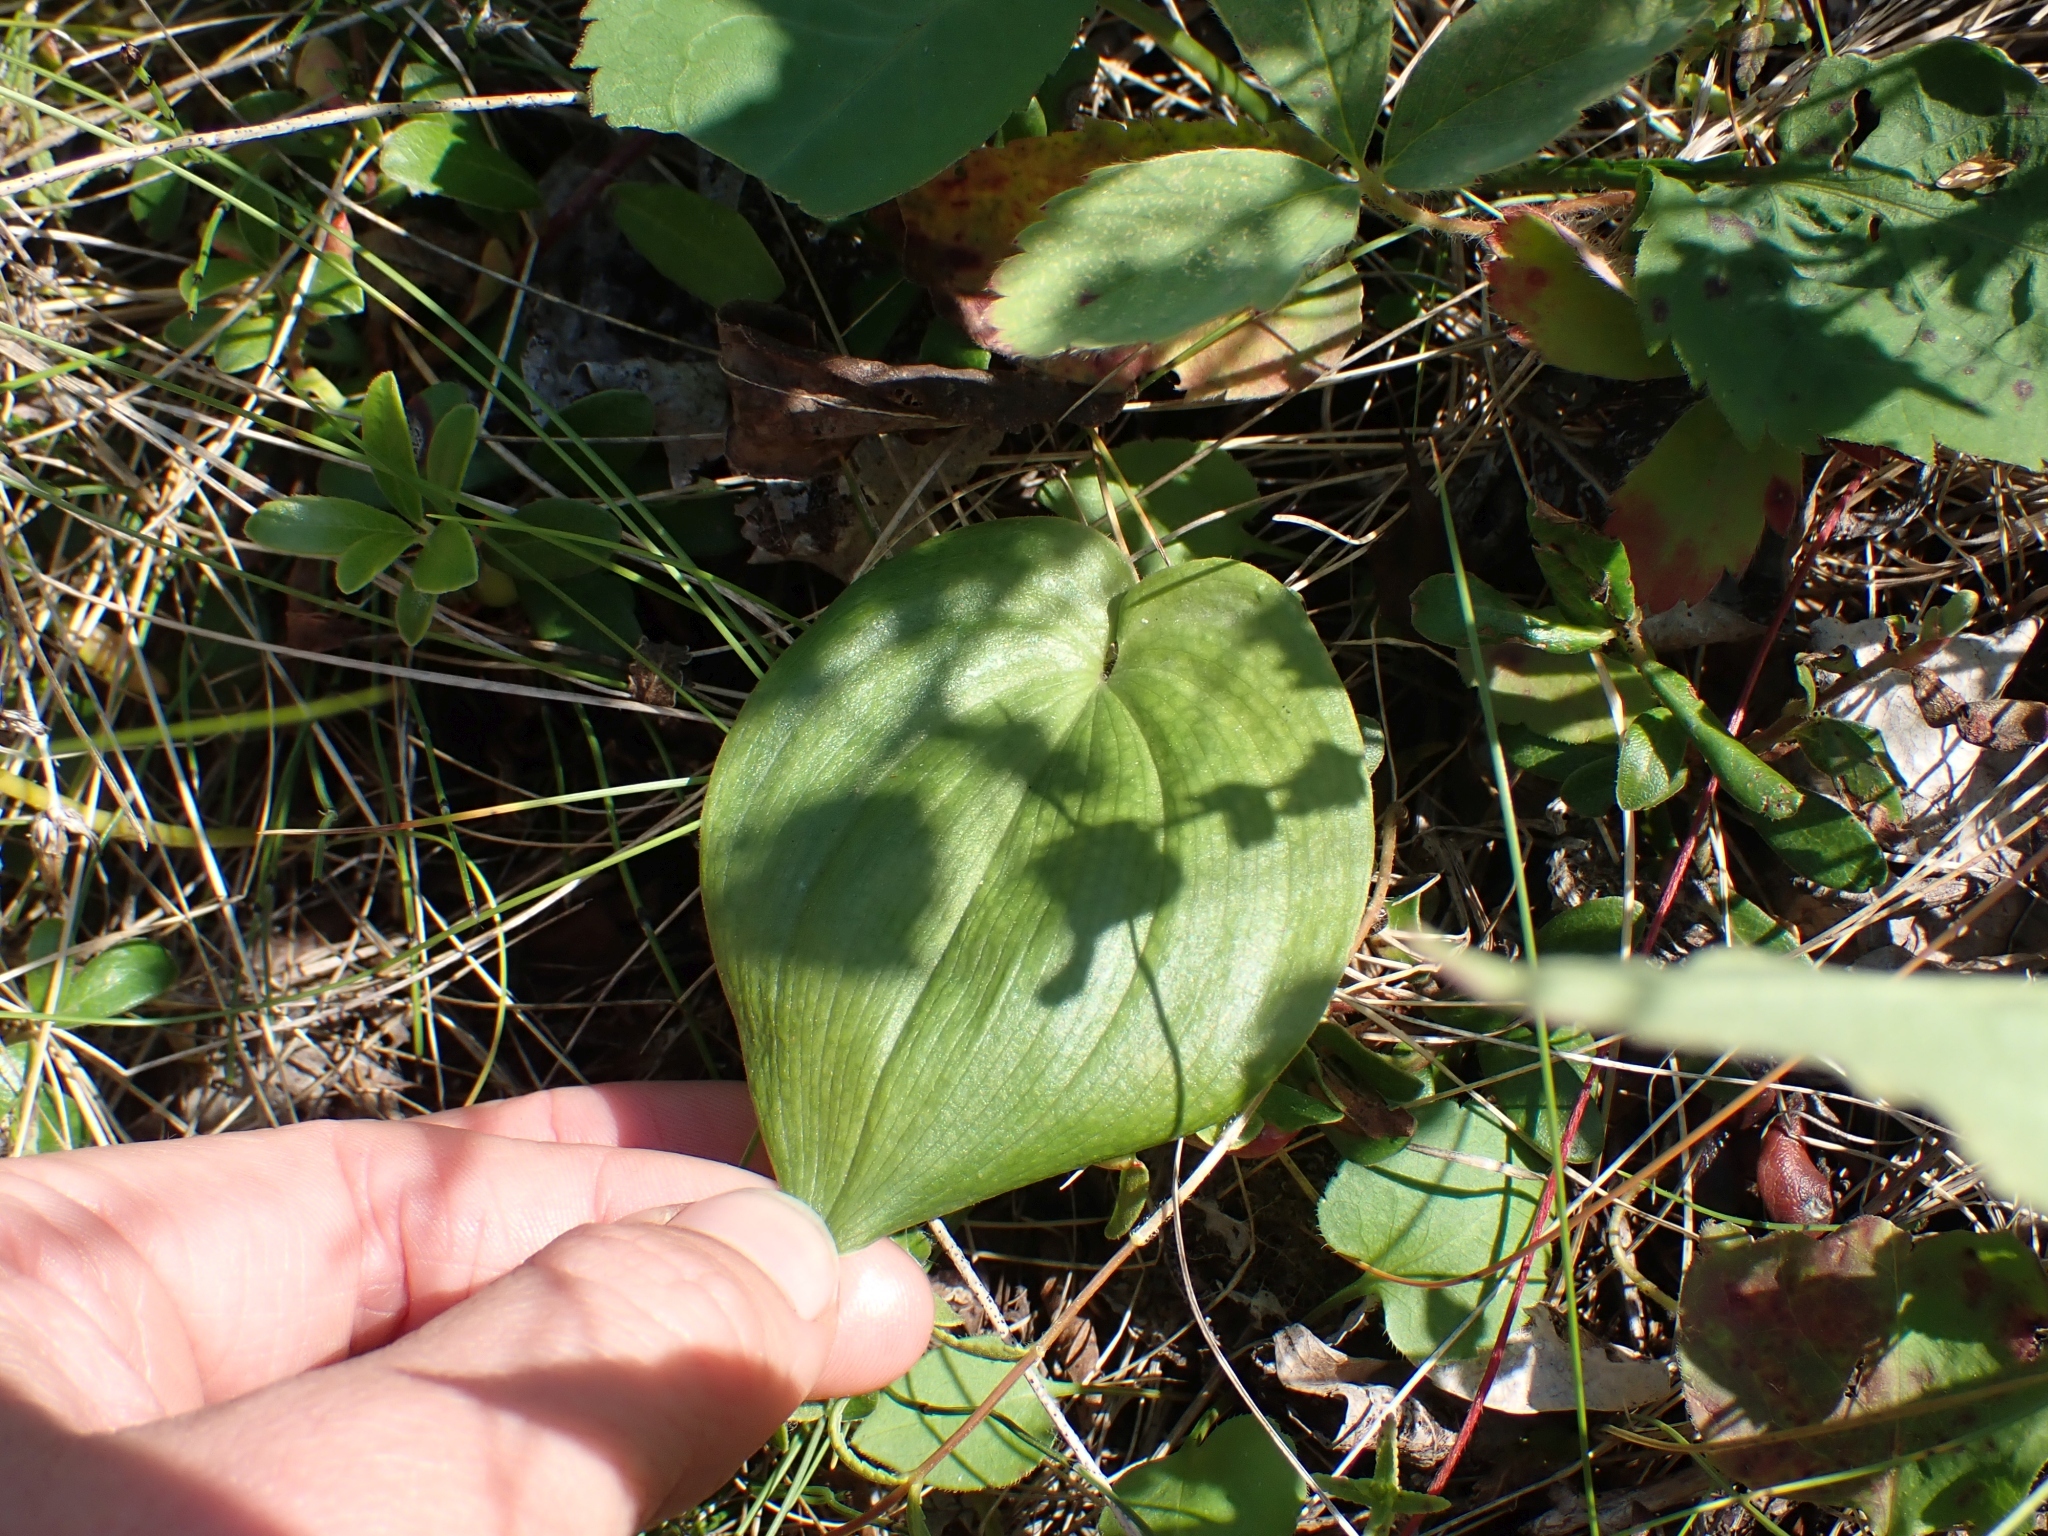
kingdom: Plantae
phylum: Tracheophyta
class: Liliopsida
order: Asparagales
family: Asparagaceae
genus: Maianthemum
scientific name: Maianthemum canadense
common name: False lily-of-the-valley
